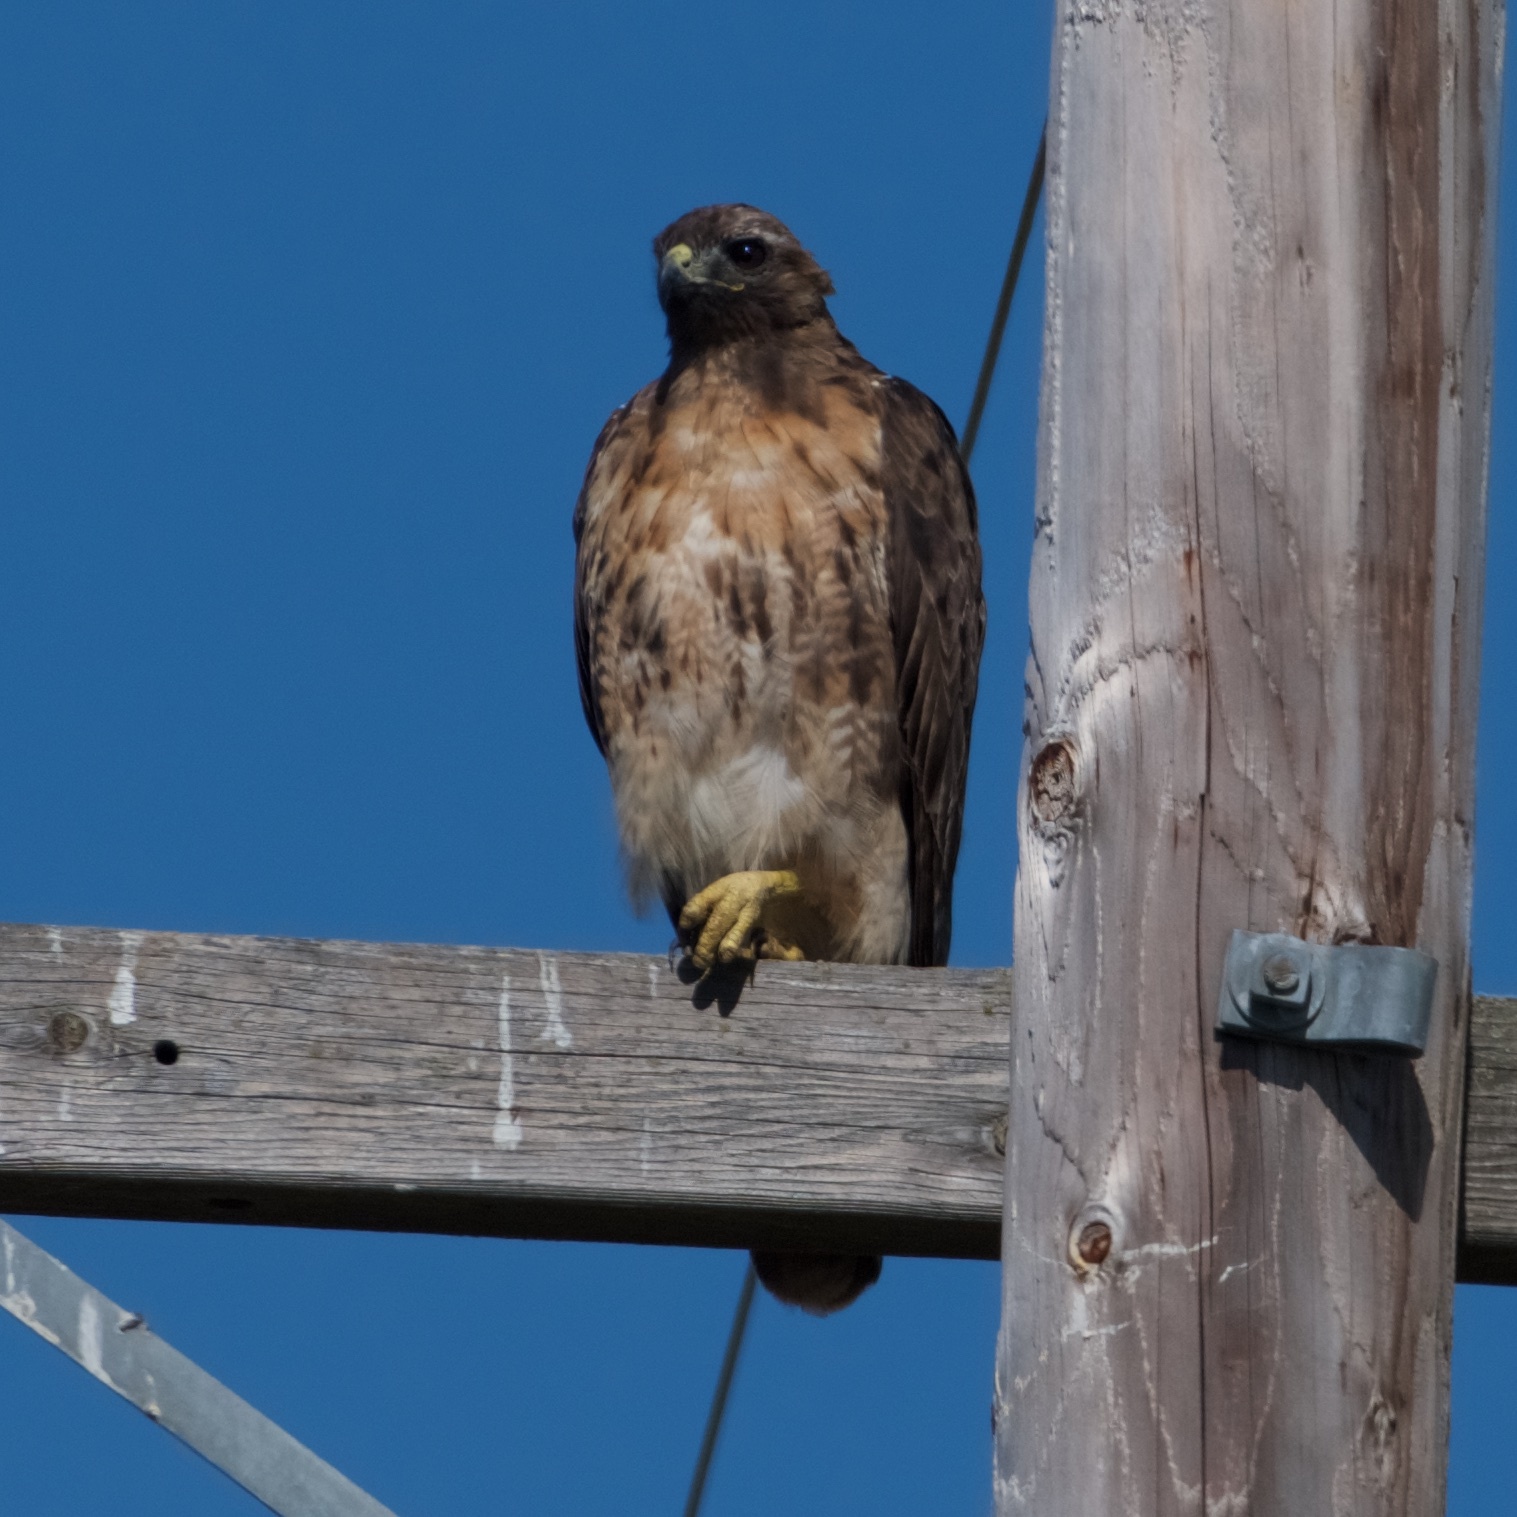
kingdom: Animalia
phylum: Chordata
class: Aves
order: Accipitriformes
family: Accipitridae
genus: Buteo
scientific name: Buteo jamaicensis
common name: Red-tailed hawk
